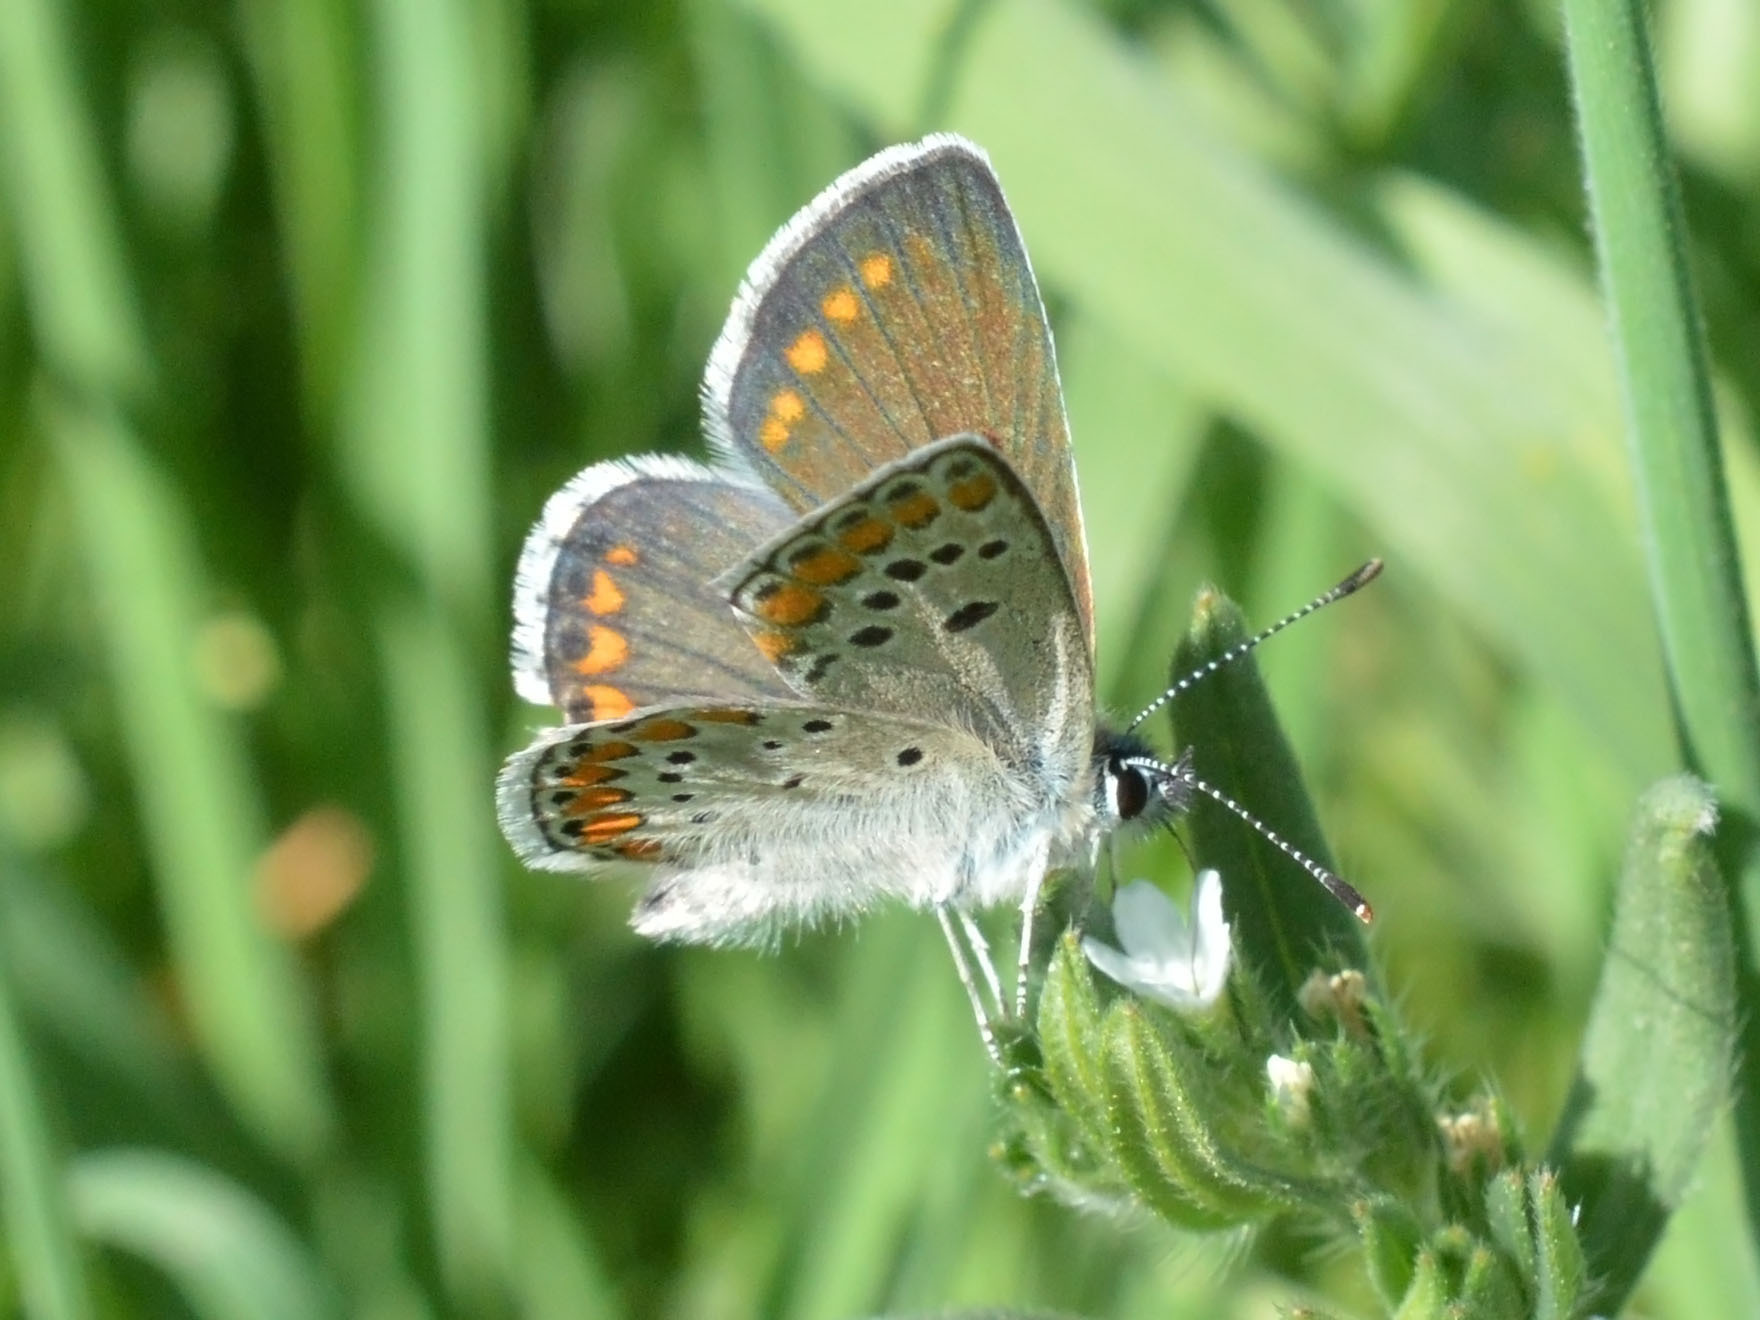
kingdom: Animalia
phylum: Arthropoda
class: Insecta
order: Lepidoptera
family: Lycaenidae
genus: Aricia
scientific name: Aricia agestis
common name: Brown argus
